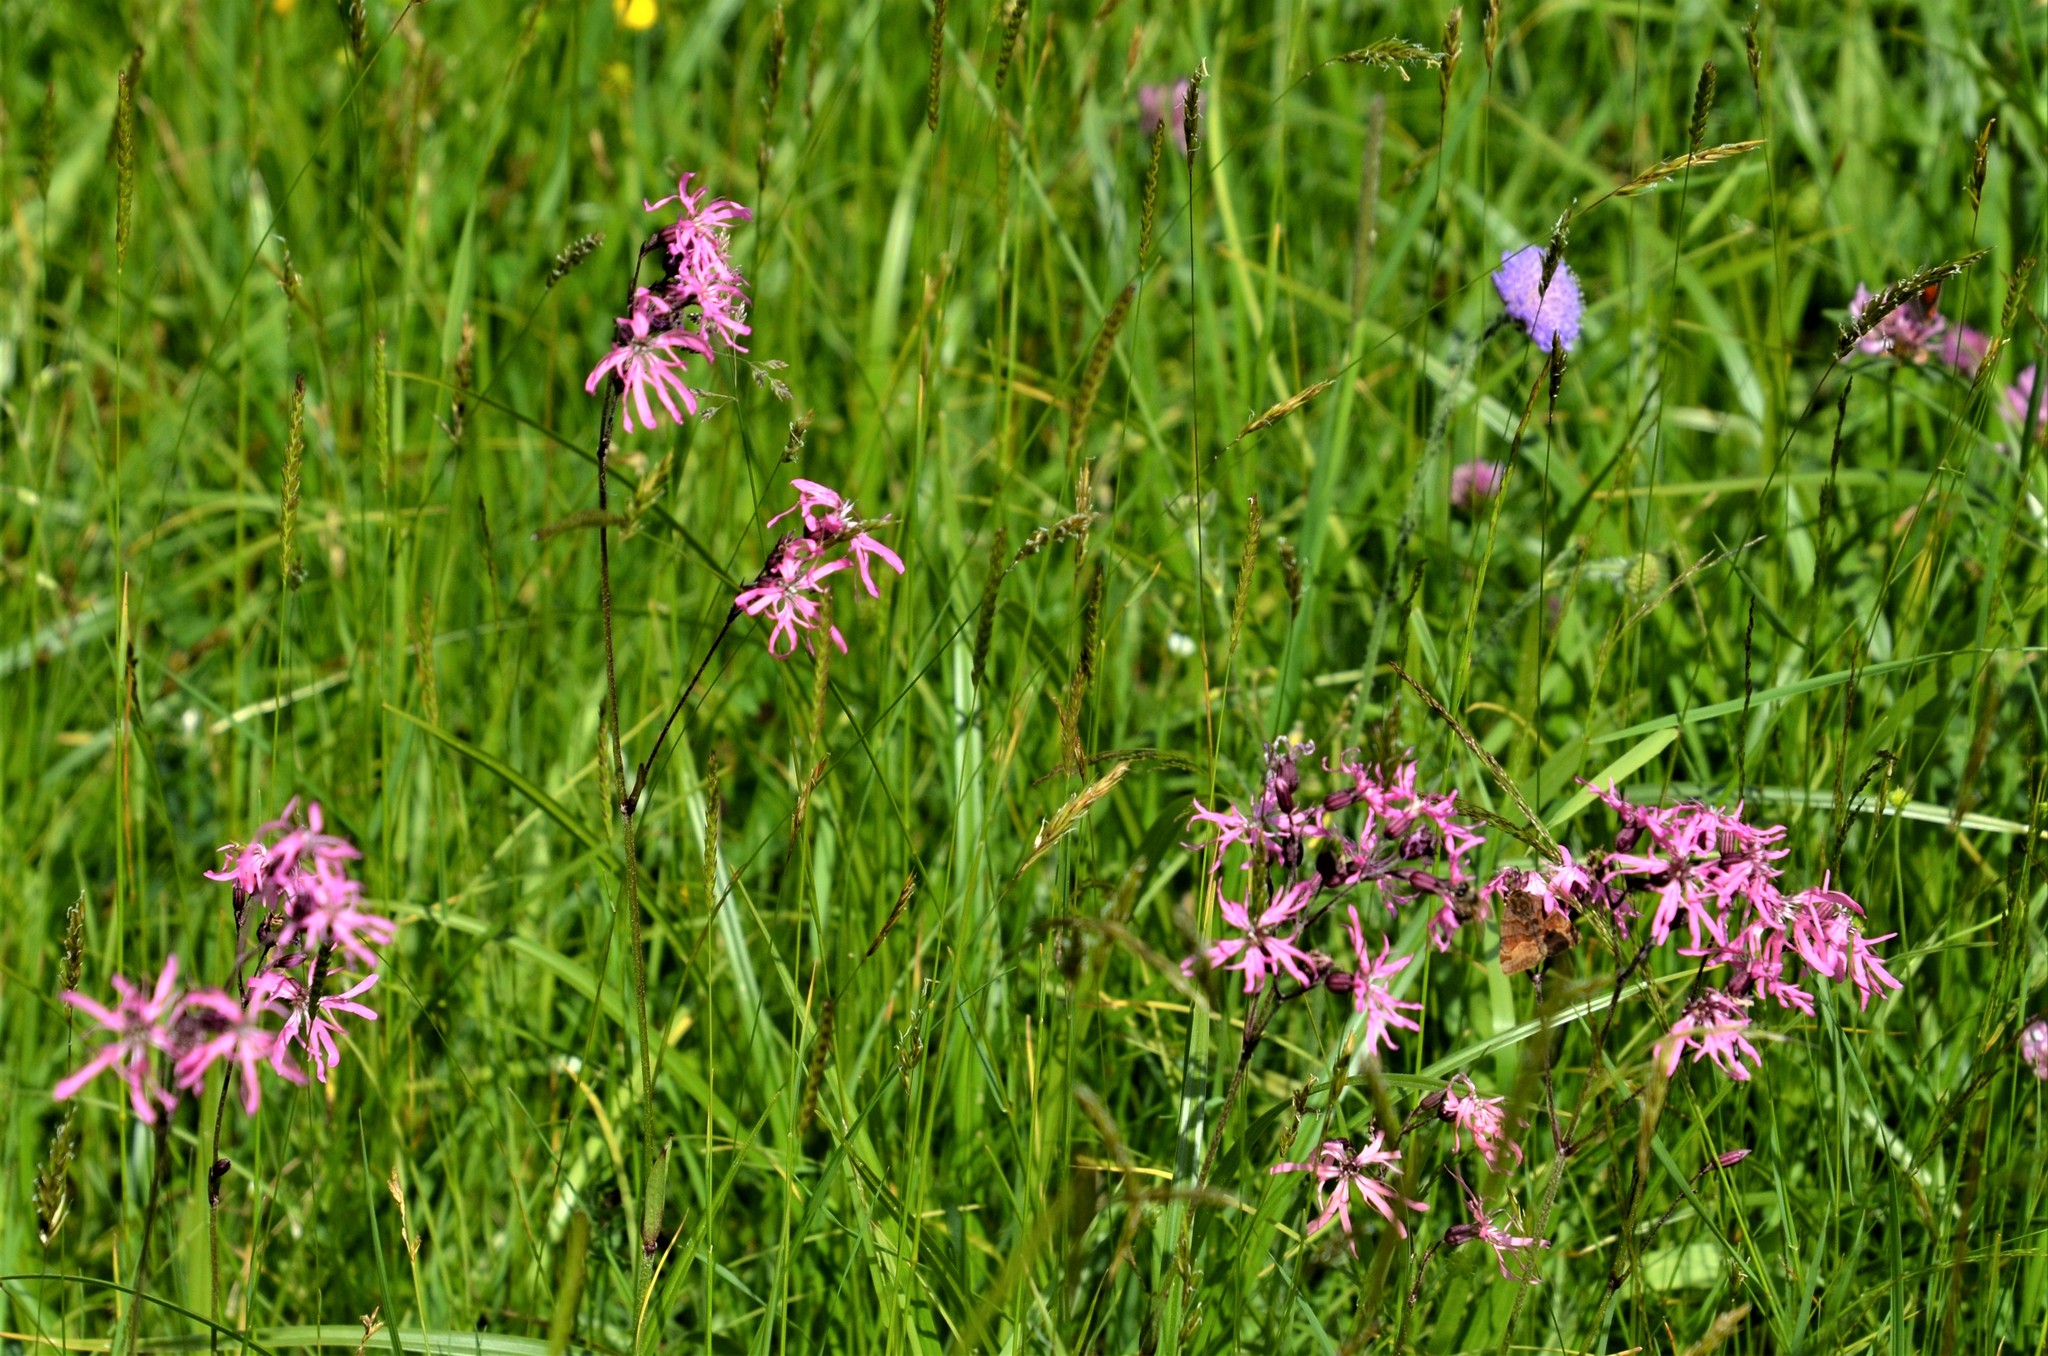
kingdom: Plantae
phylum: Tracheophyta
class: Magnoliopsida
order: Caryophyllales
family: Caryophyllaceae
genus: Silene
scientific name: Silene flos-cuculi
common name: Ragged-robin
